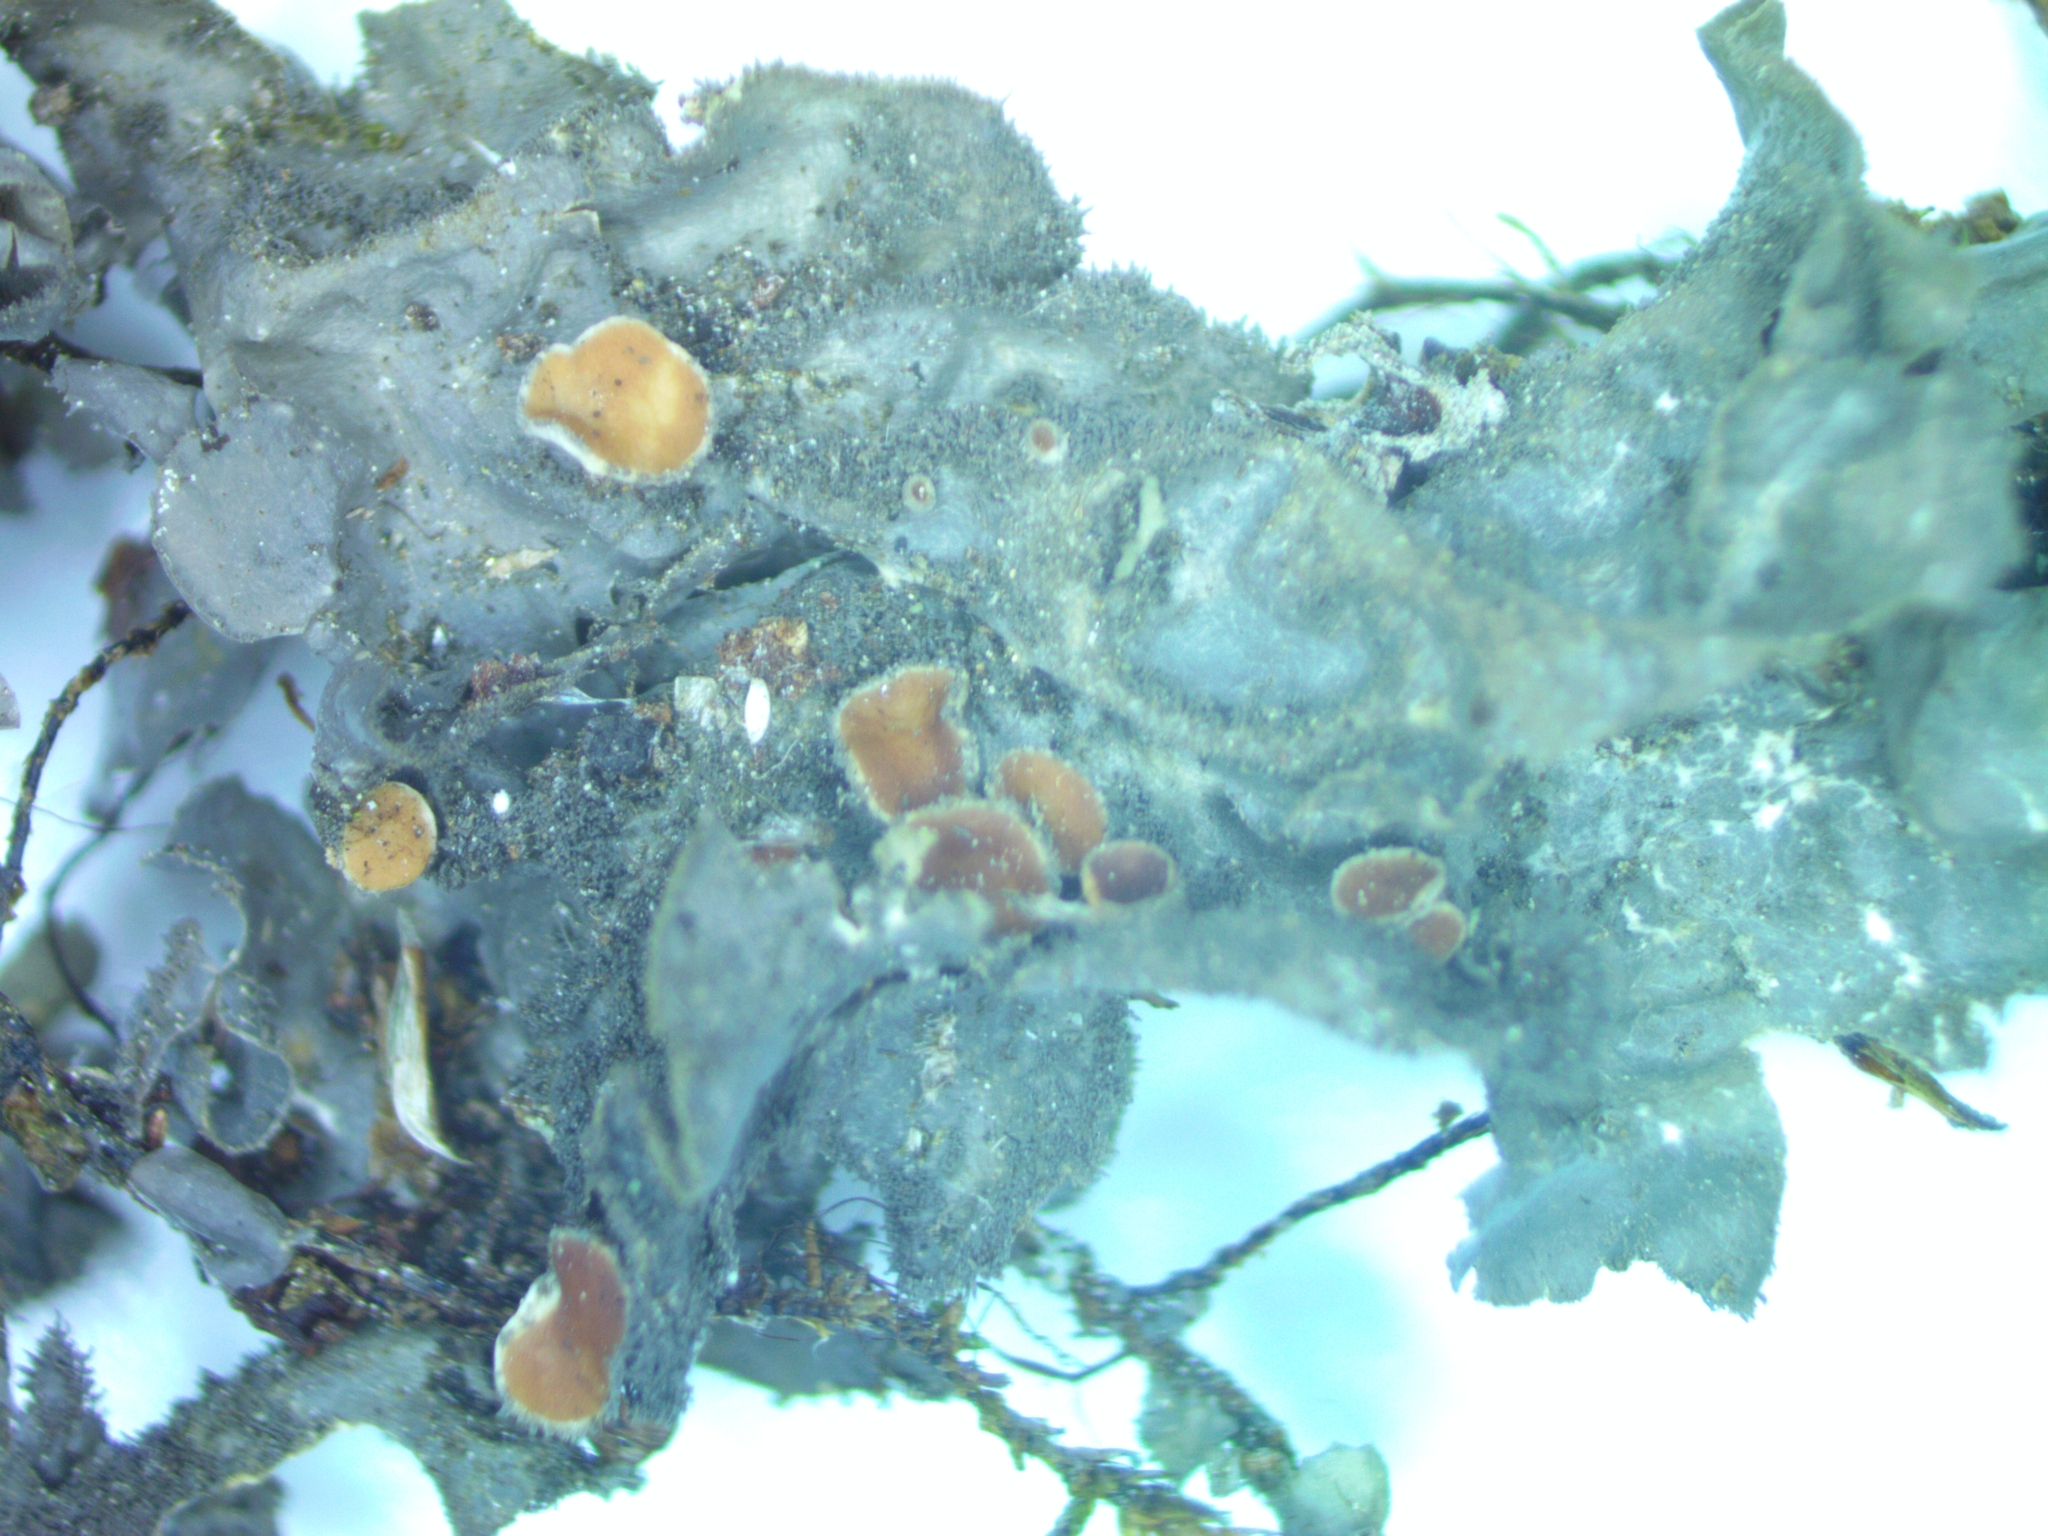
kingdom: Fungi
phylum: Ascomycota
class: Lecanoromycetes
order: Peltigerales
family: Collemataceae
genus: Leptogium
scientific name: Leptogium cyanescens
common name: Blue jellyskin
